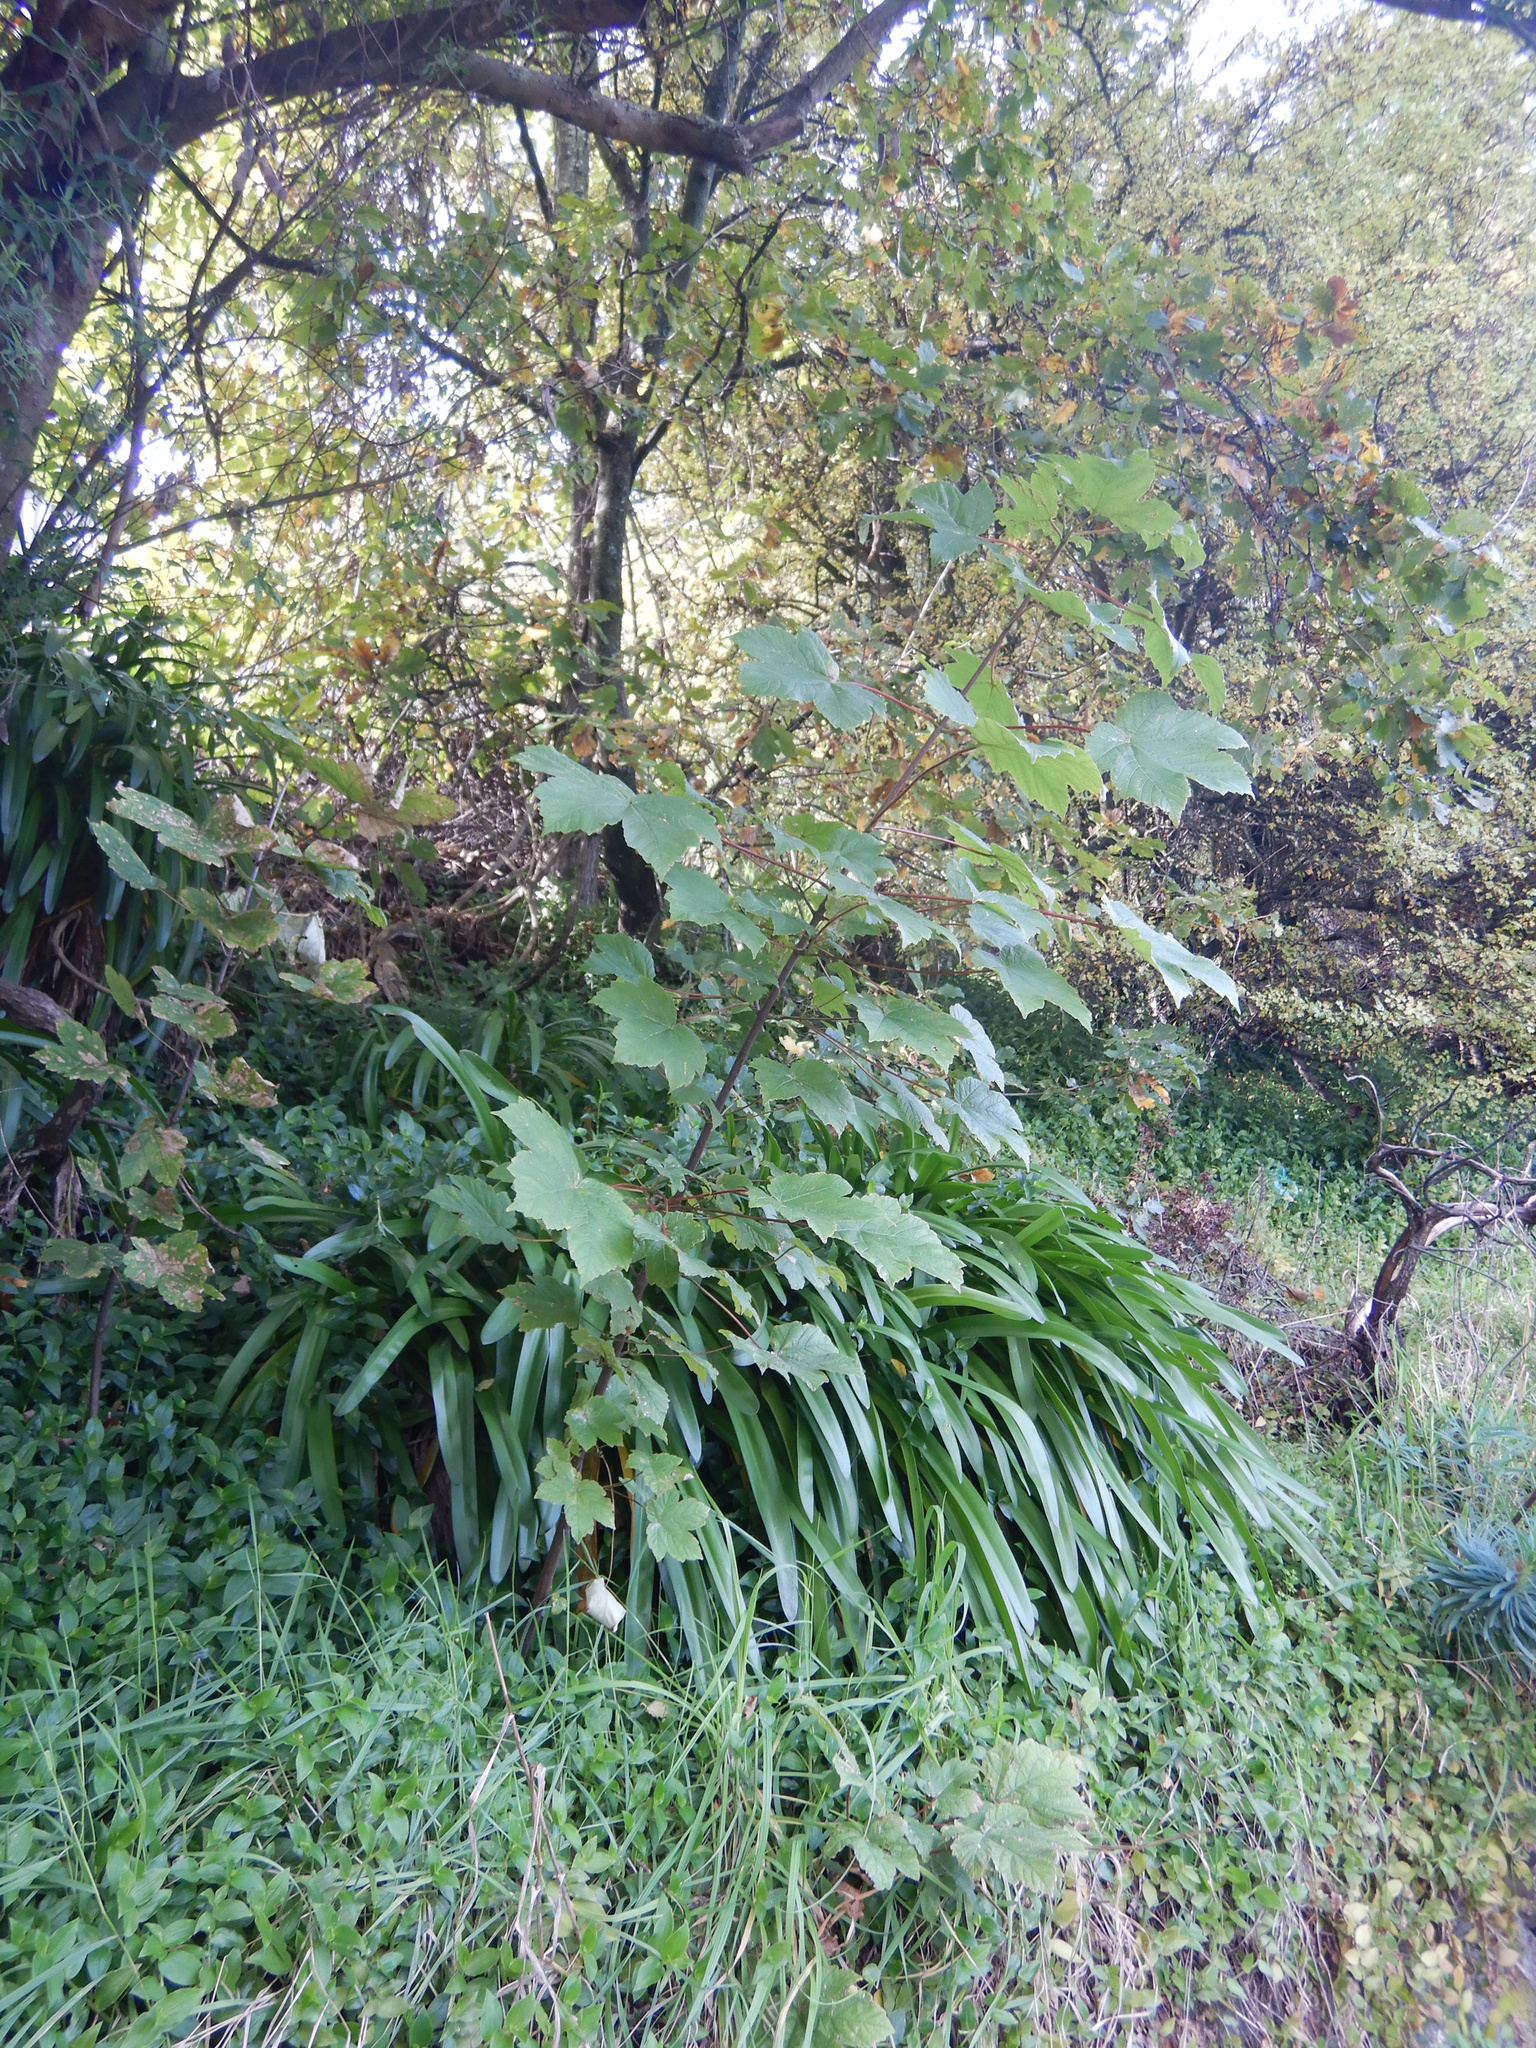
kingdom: Plantae
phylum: Tracheophyta
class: Magnoliopsida
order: Sapindales
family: Sapindaceae
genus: Acer
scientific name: Acer pseudoplatanus
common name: Sycamore
